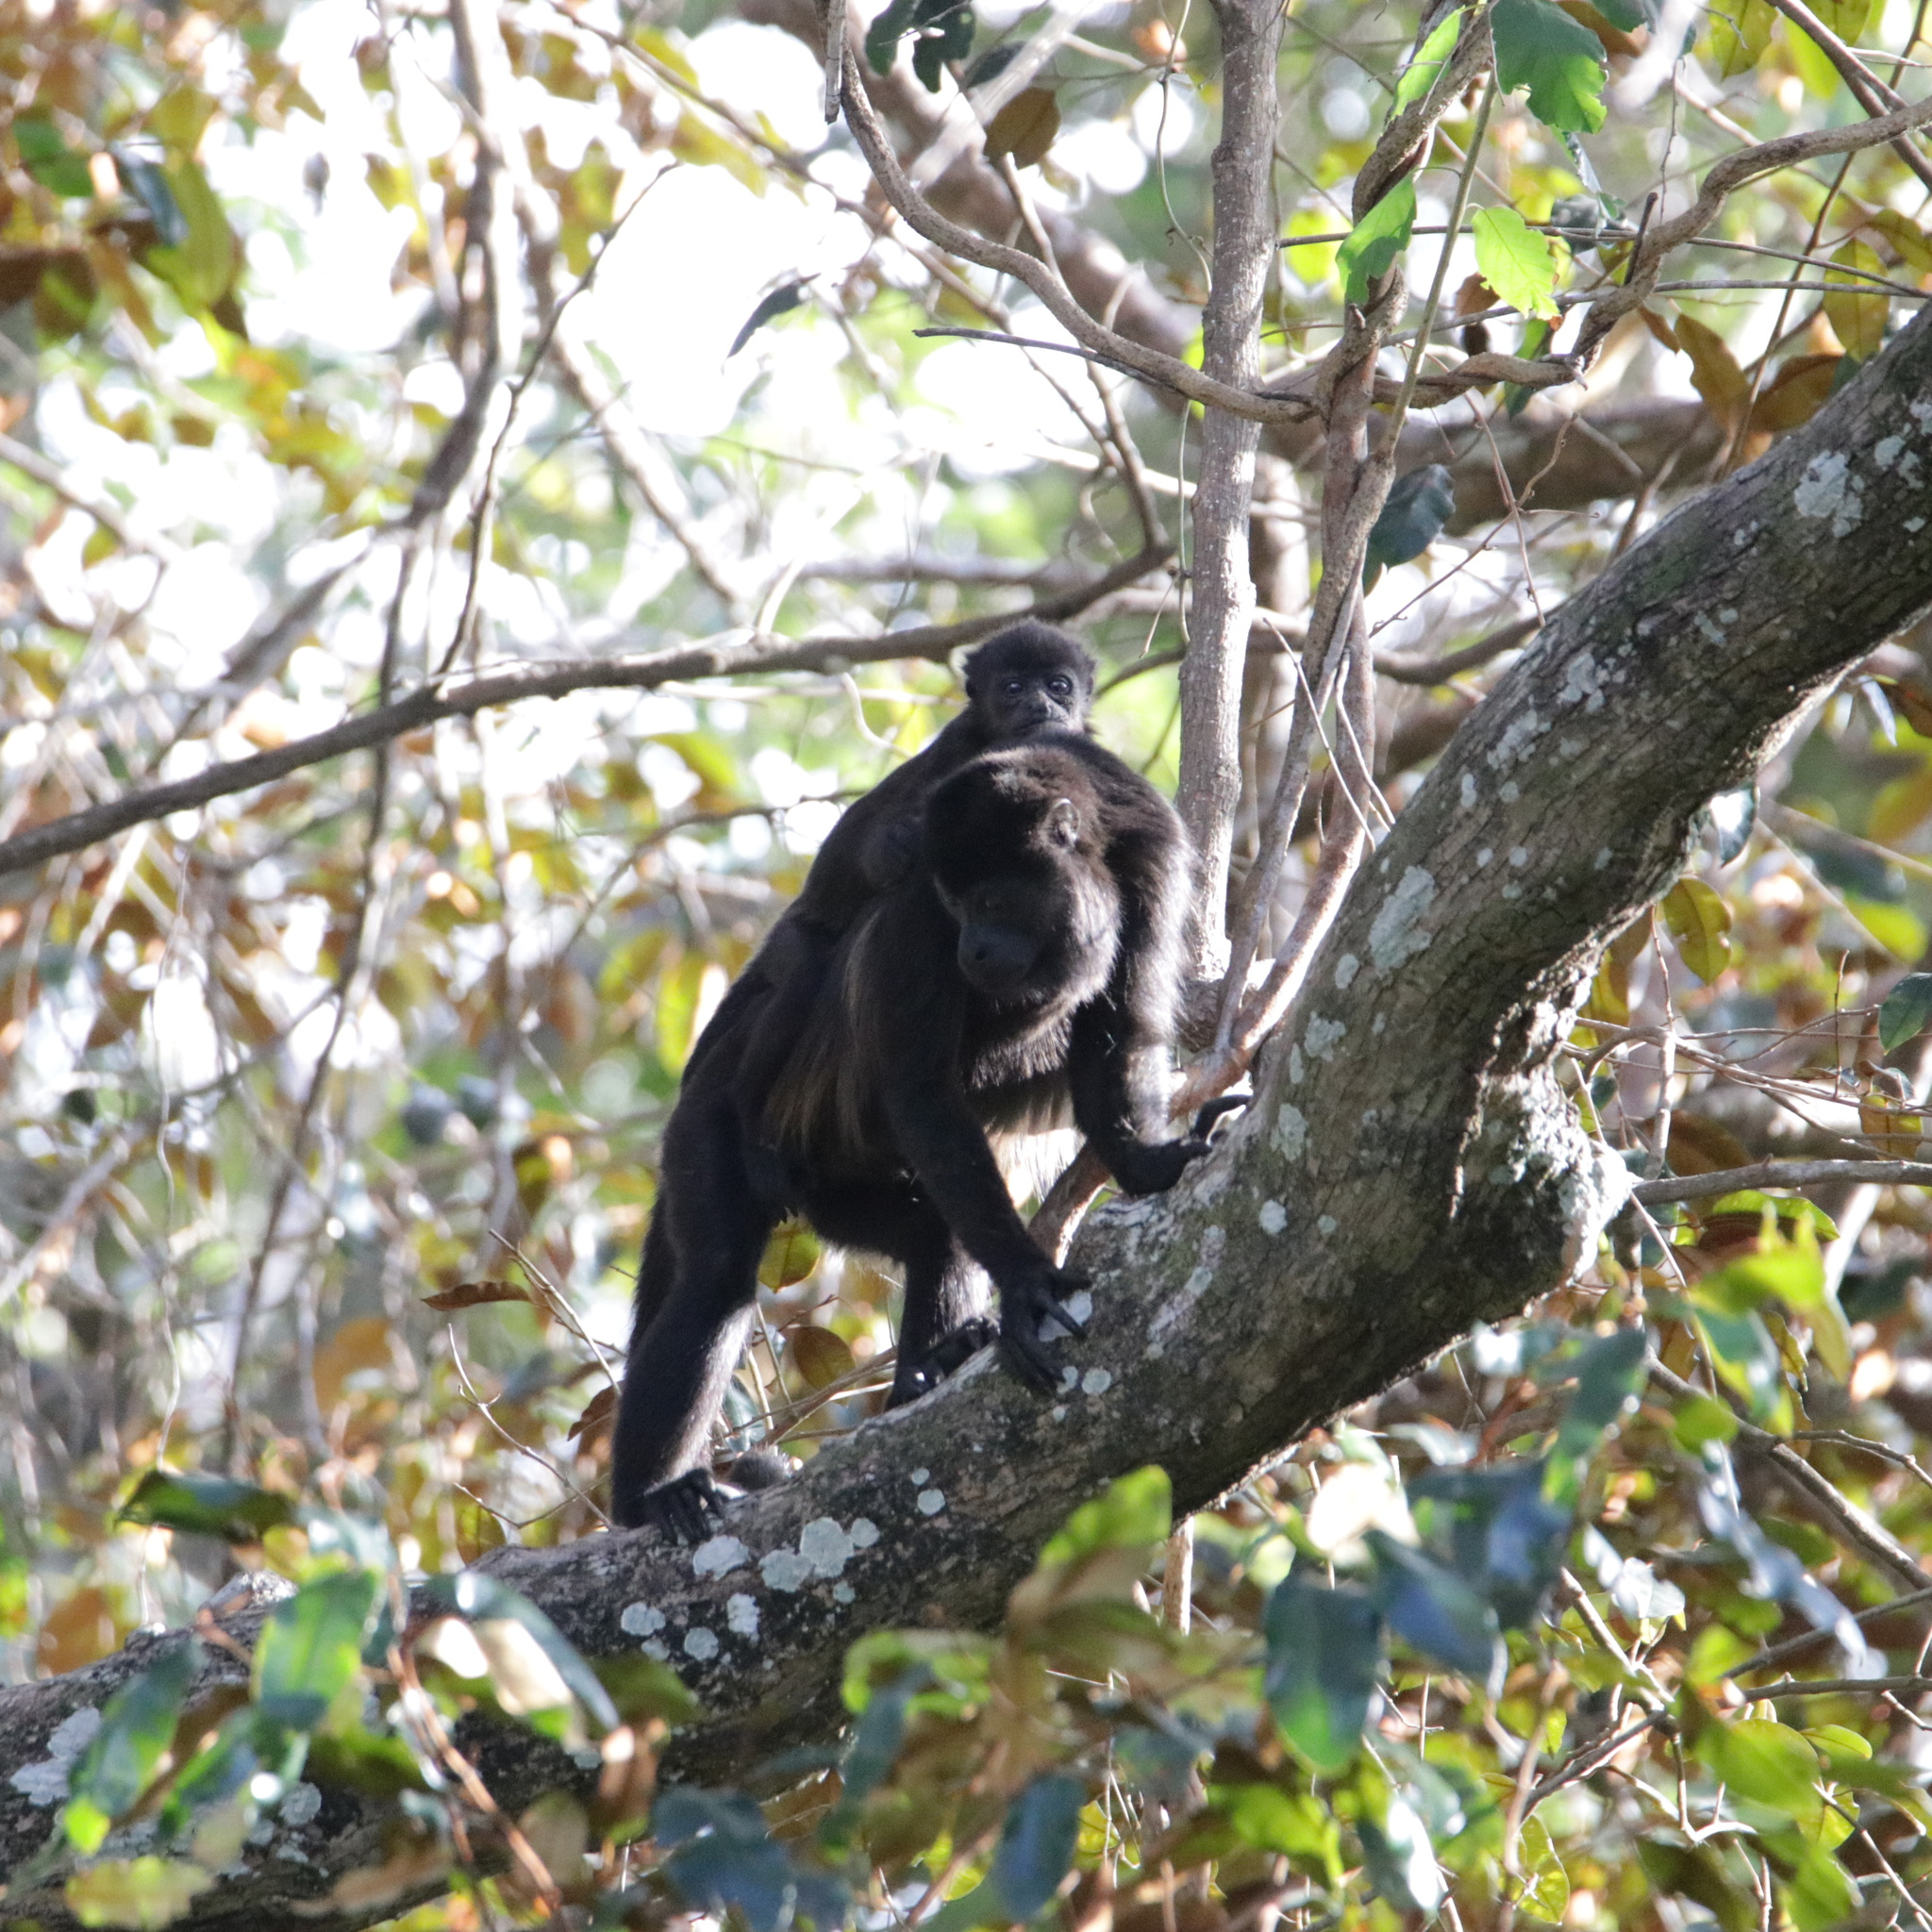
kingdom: Animalia
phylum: Chordata
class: Mammalia
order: Primates
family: Atelidae
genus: Alouatta
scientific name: Alouatta palliata
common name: Mantled howler
